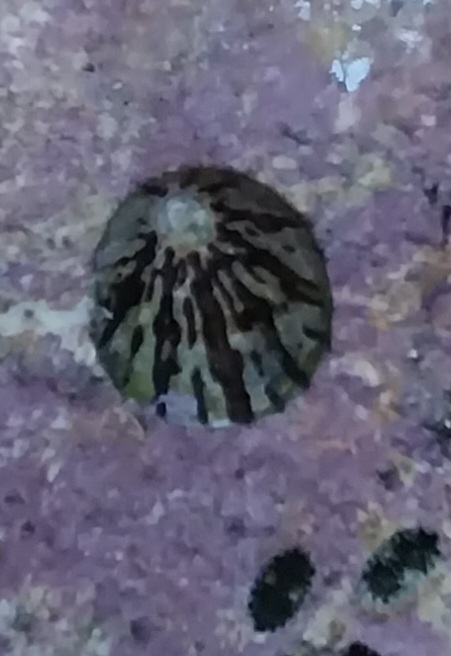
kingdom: Animalia
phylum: Mollusca
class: Gastropoda
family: Nacellidae
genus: Cellana
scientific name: Cellana radians
